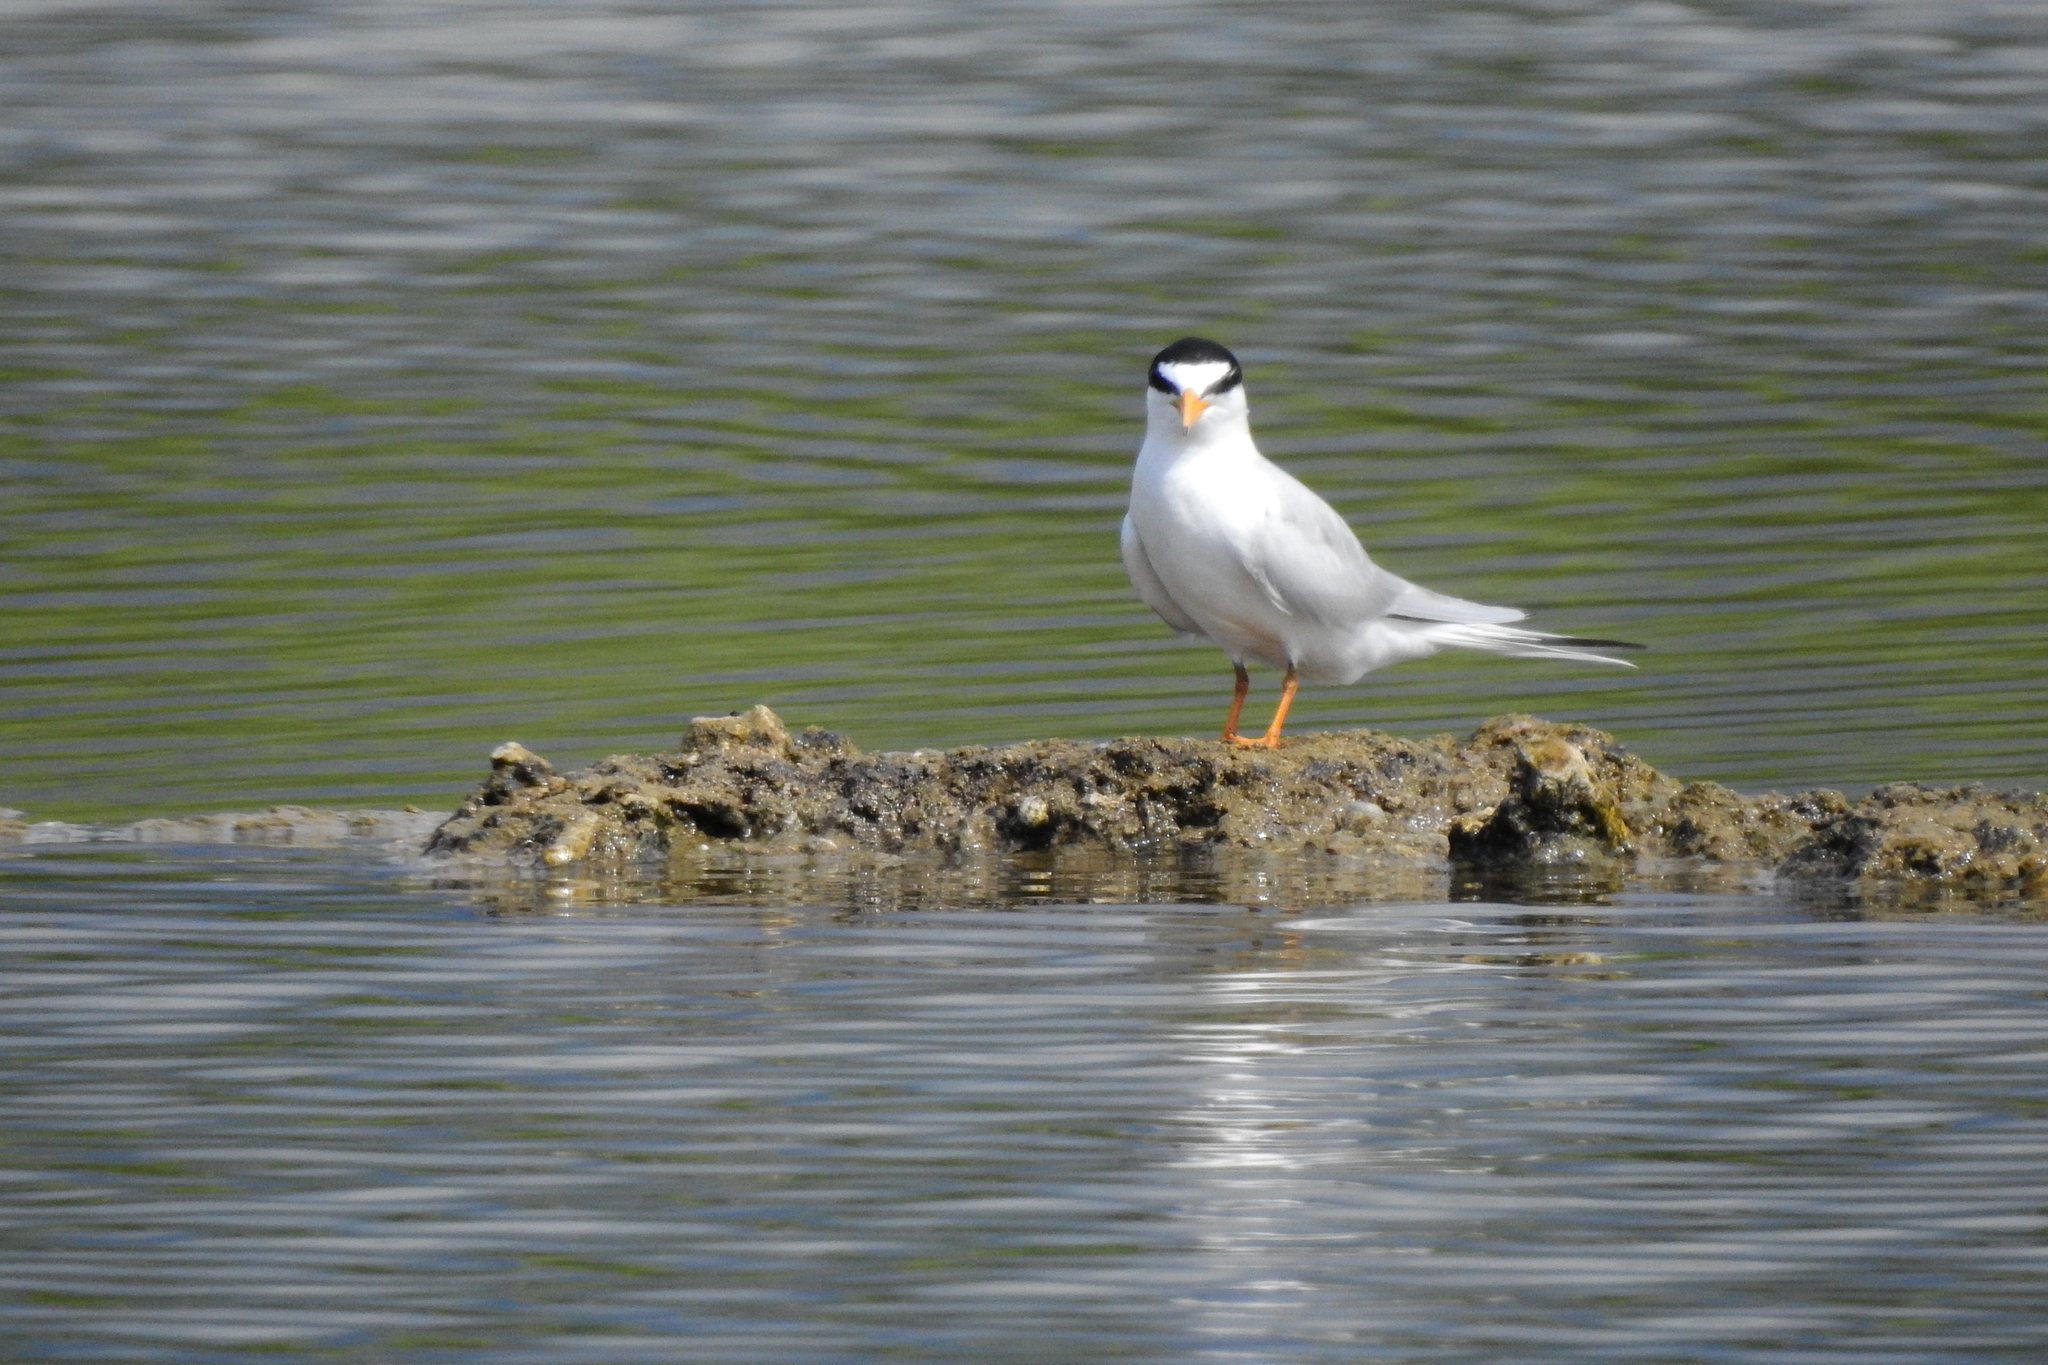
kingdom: Animalia
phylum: Chordata
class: Aves
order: Charadriiformes
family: Laridae
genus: Sternula
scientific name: Sternula albifrons
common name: Little tern
